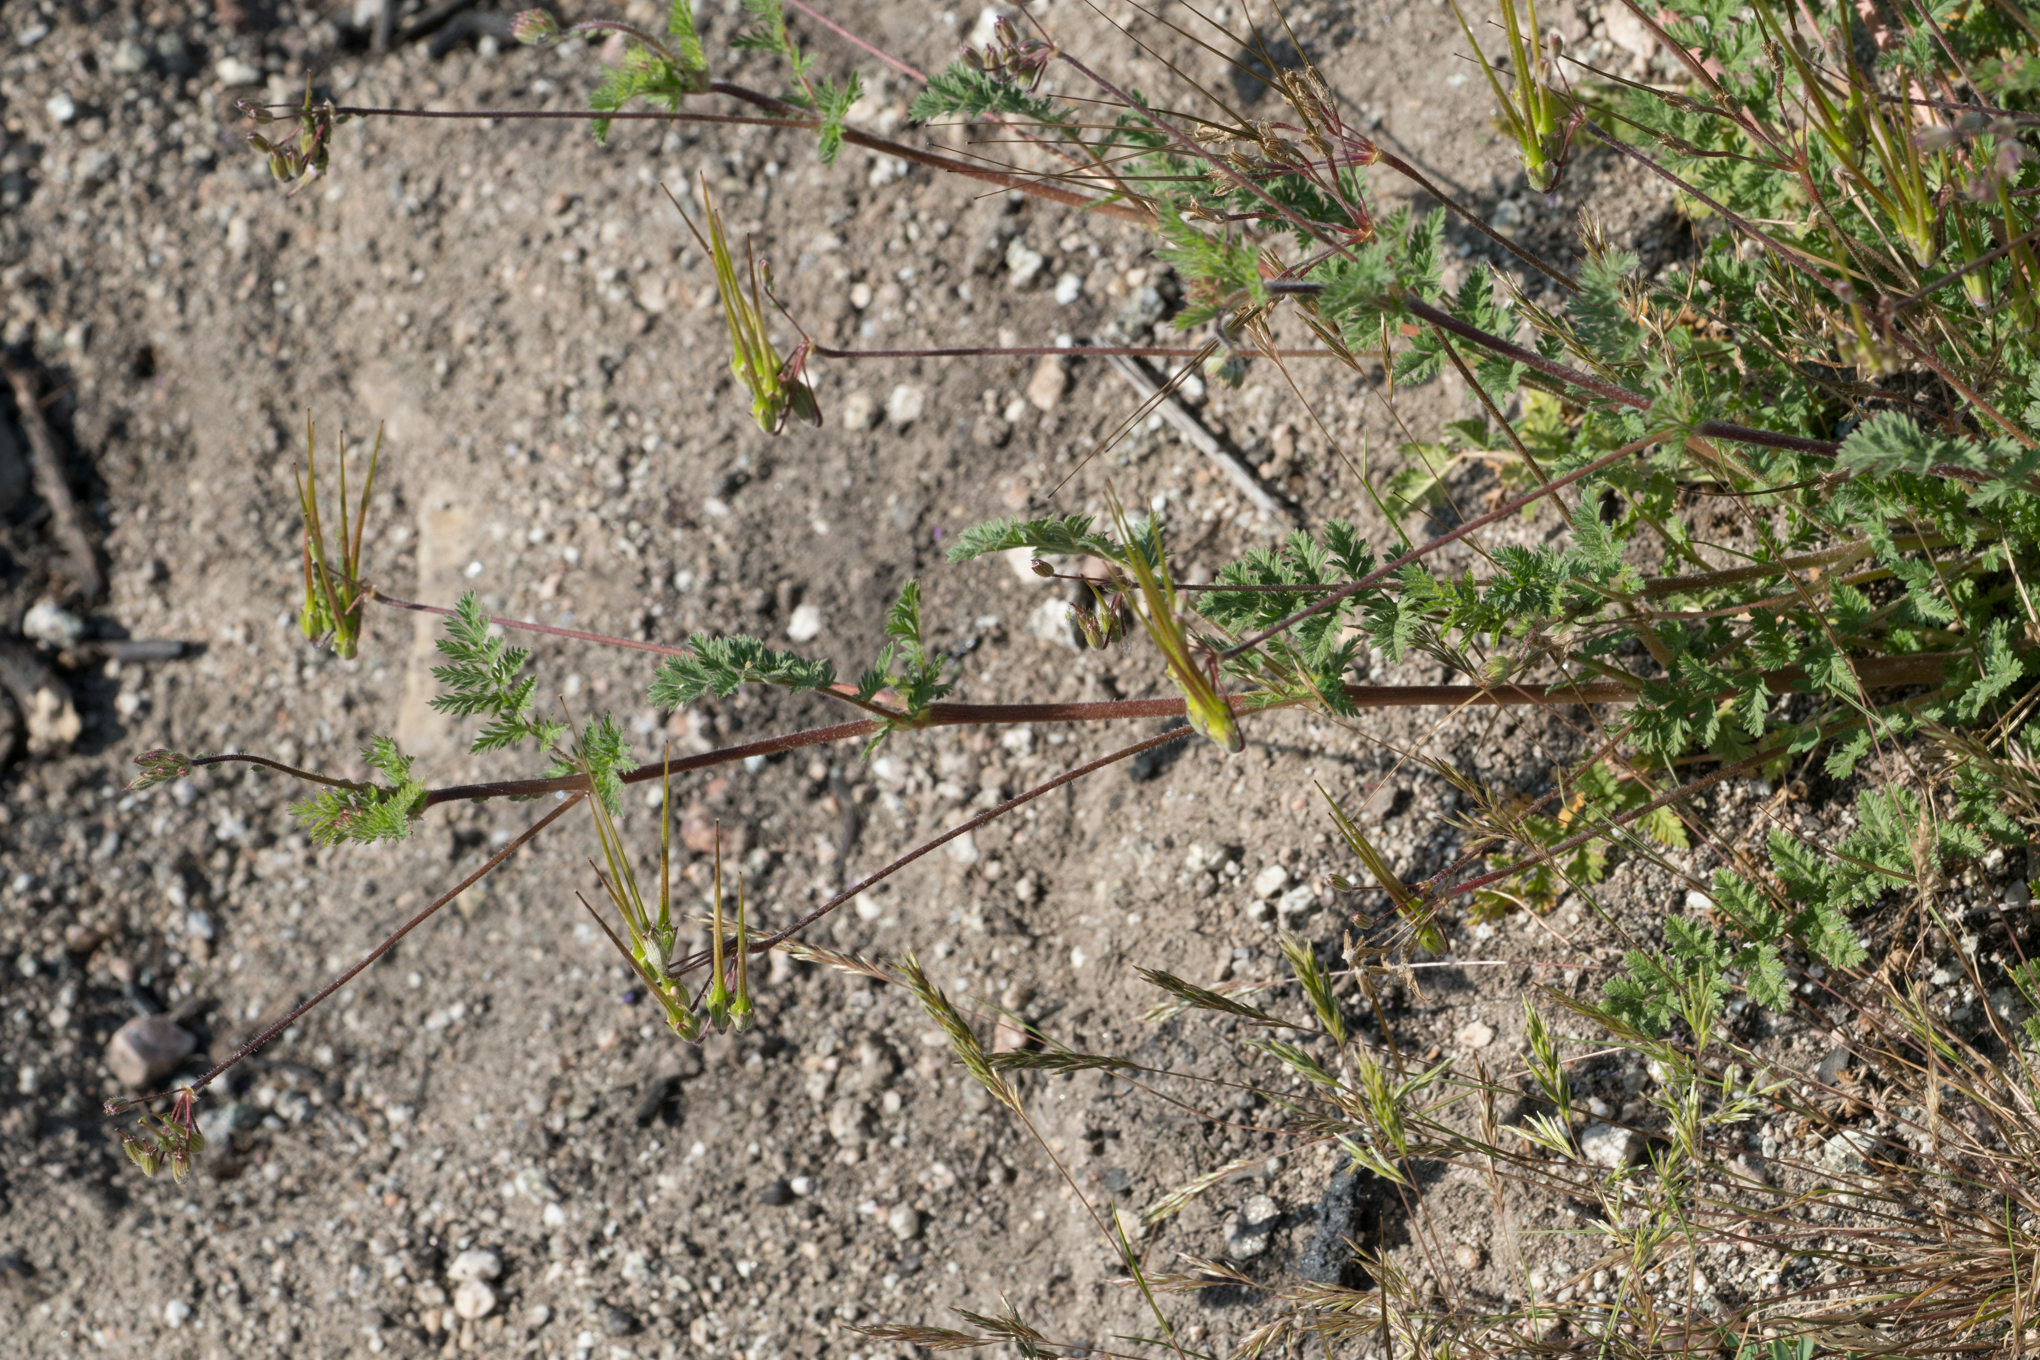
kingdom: Plantae
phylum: Tracheophyta
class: Magnoliopsida
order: Geraniales
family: Geraniaceae
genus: Erodium
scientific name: Erodium cicutarium
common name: Common stork's-bill
